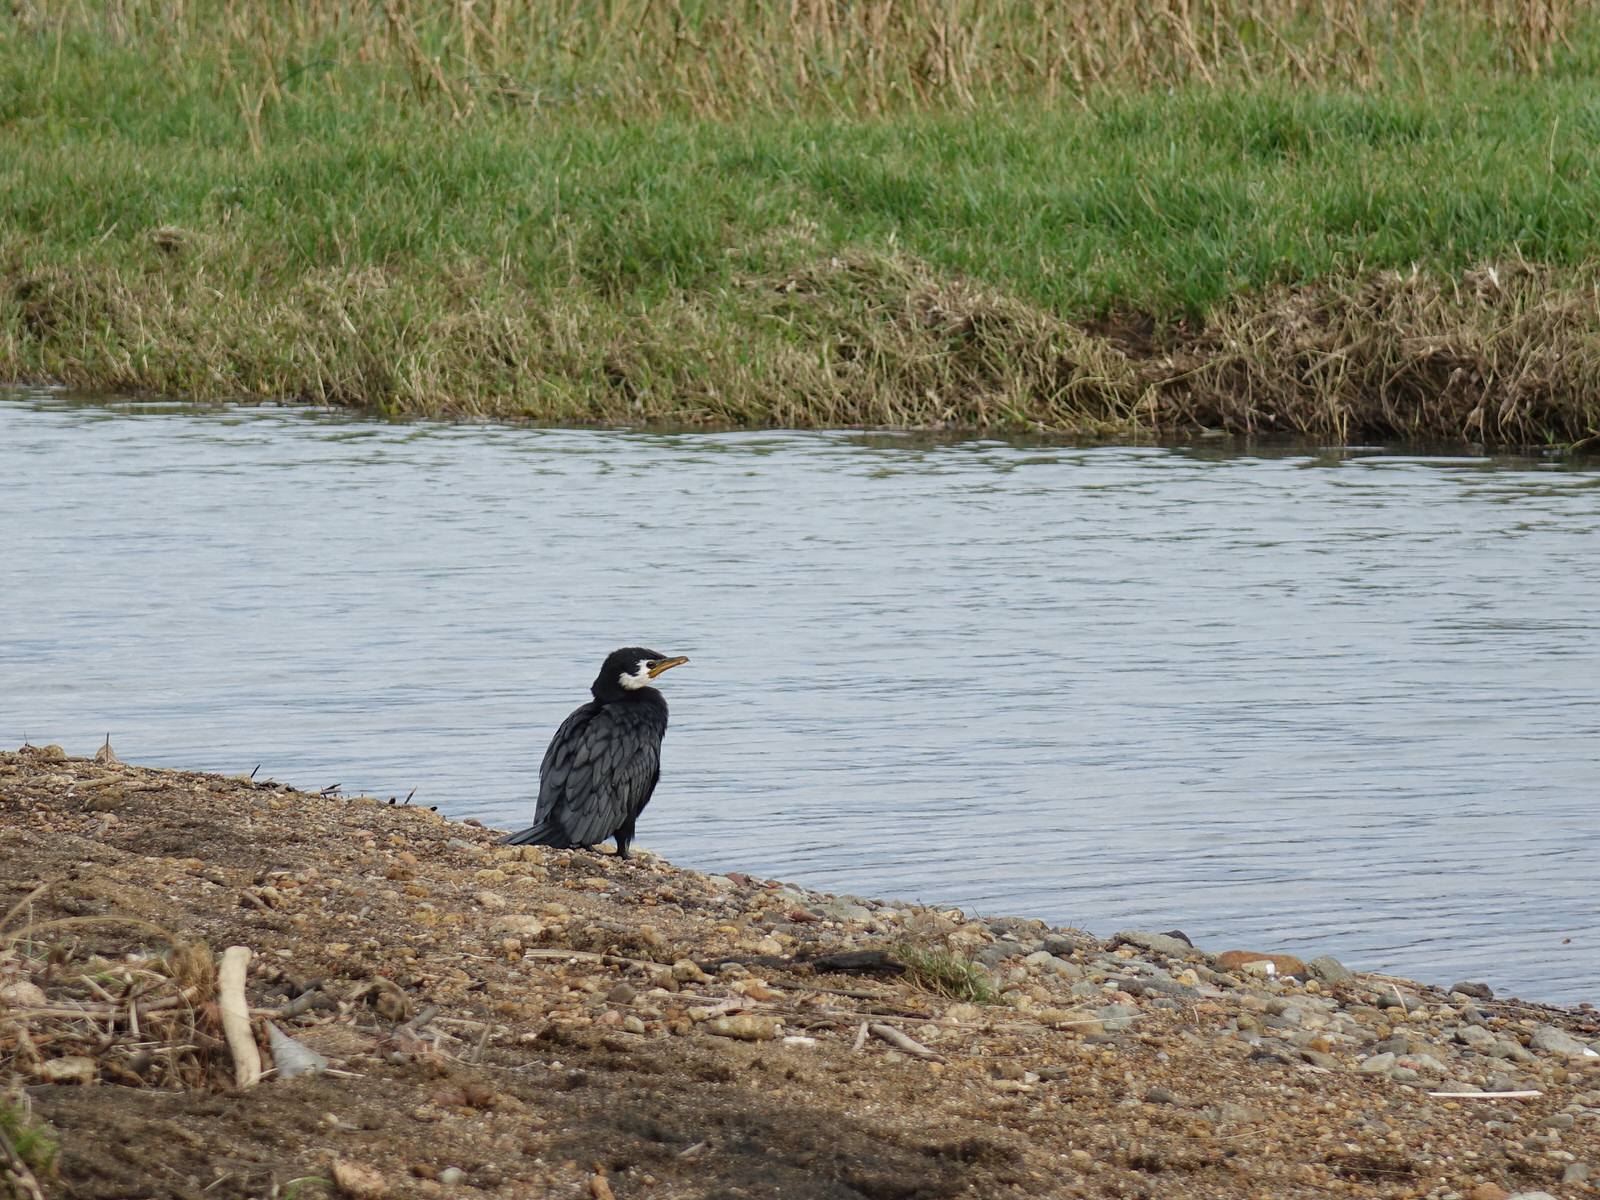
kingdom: Animalia
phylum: Chordata
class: Aves
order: Suliformes
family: Phalacrocoracidae
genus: Microcarbo
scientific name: Microcarbo melanoleucos
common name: Little pied cormorant
